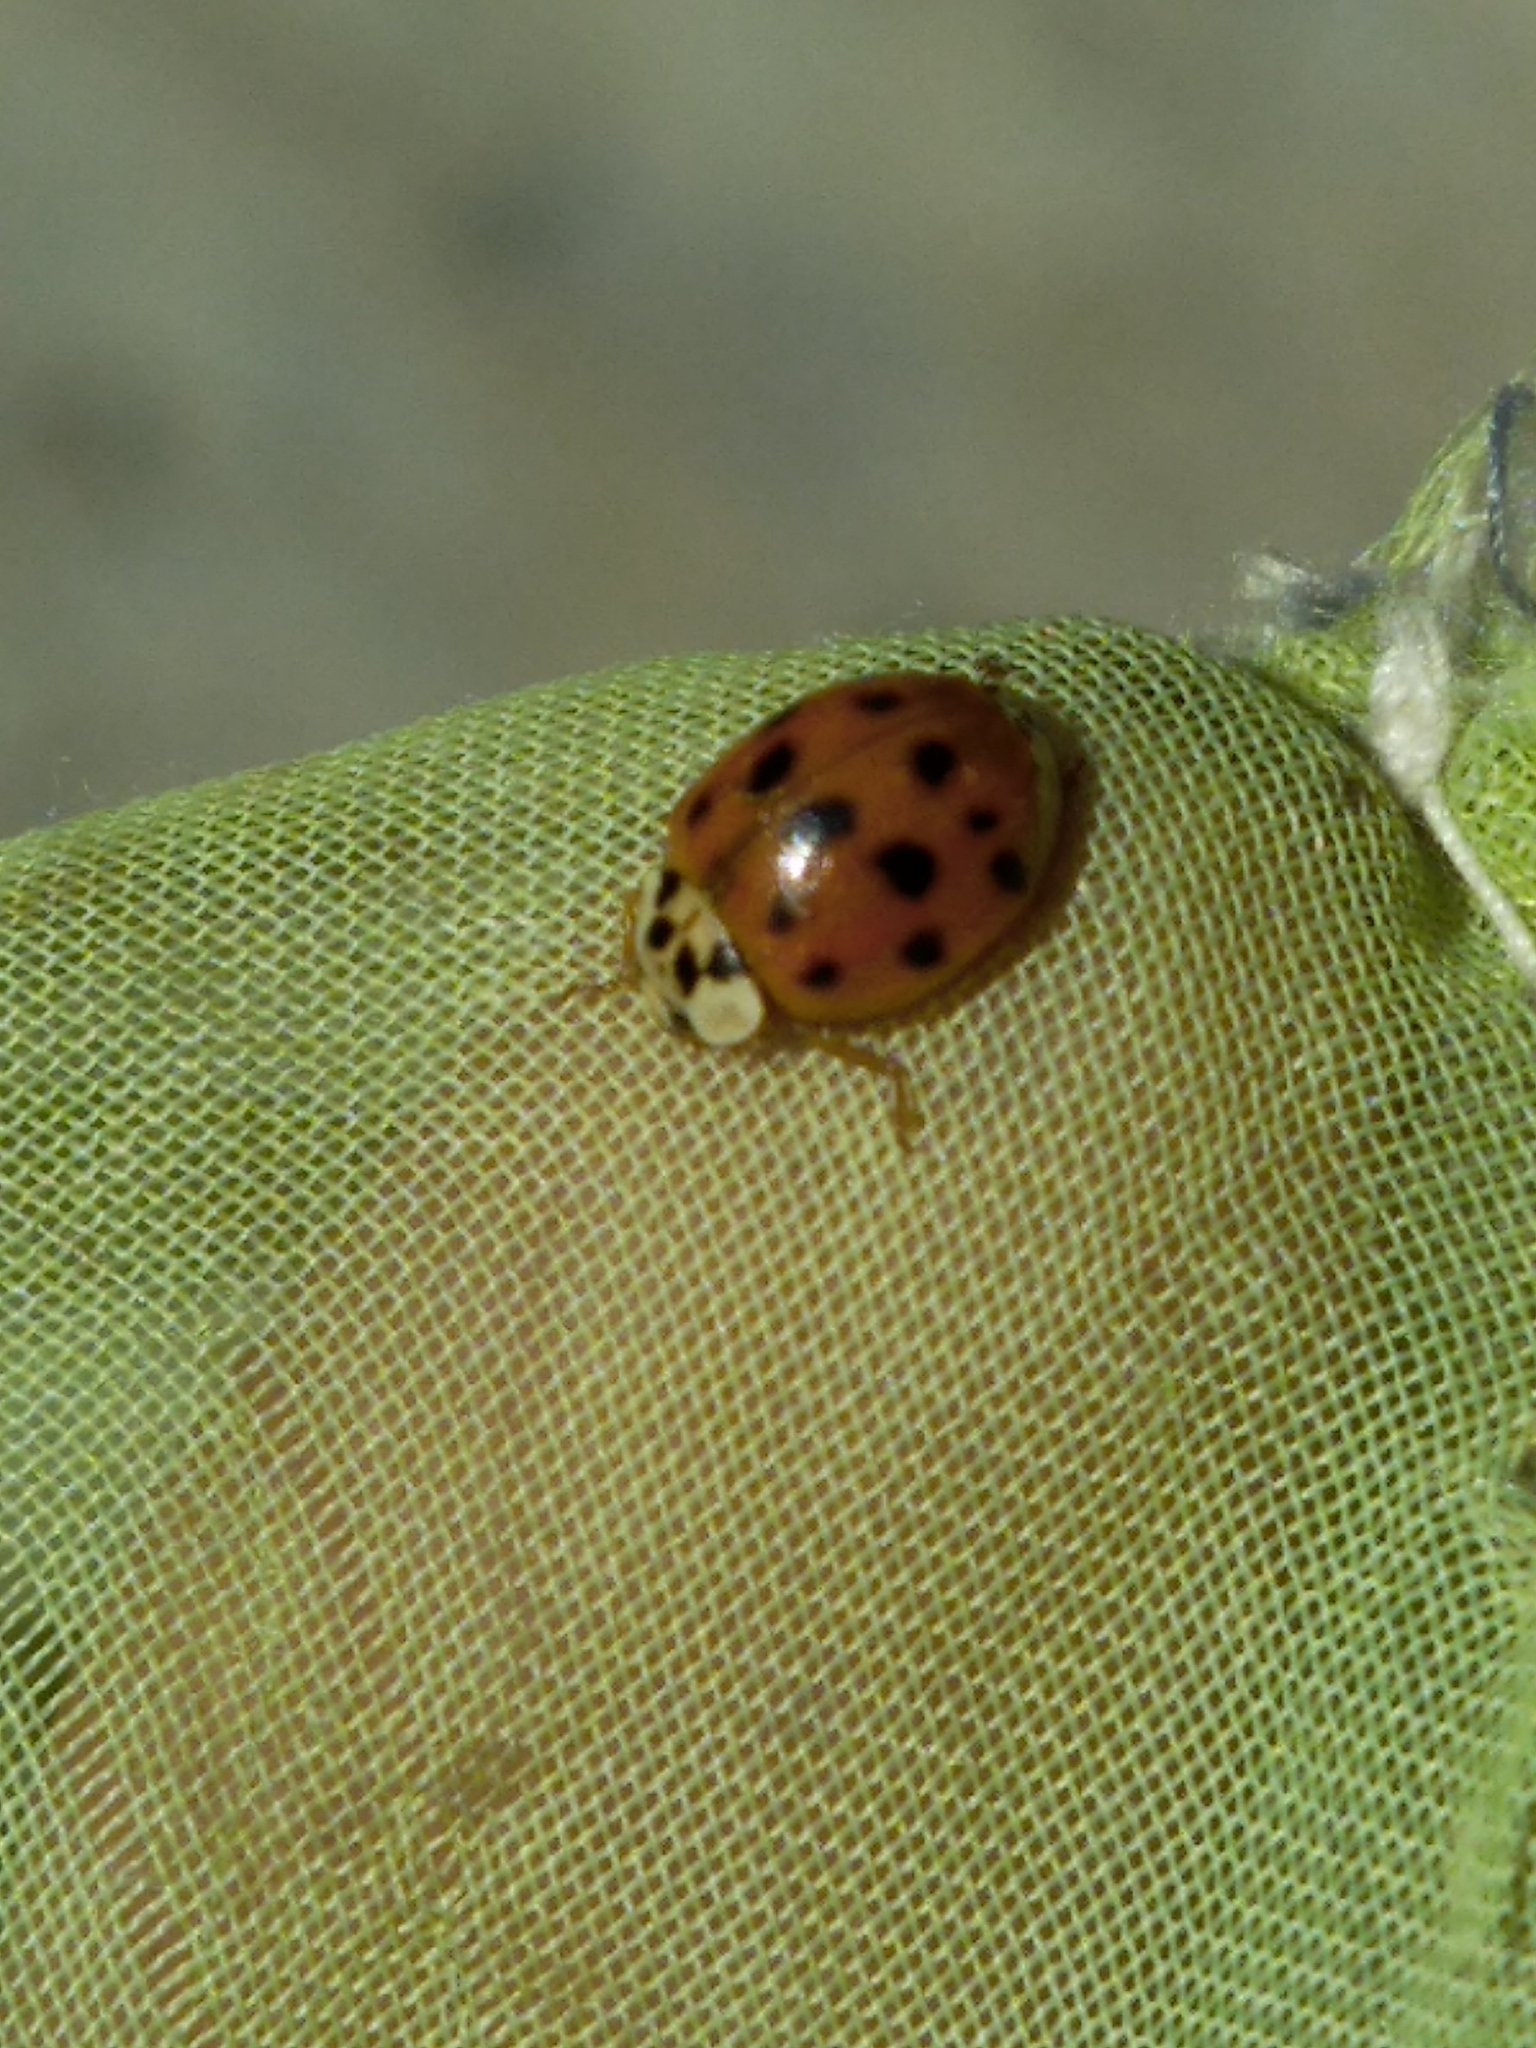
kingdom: Animalia
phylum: Arthropoda
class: Insecta
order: Coleoptera
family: Coccinellidae
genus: Harmonia
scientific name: Harmonia axyridis
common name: Harlequin ladybird
